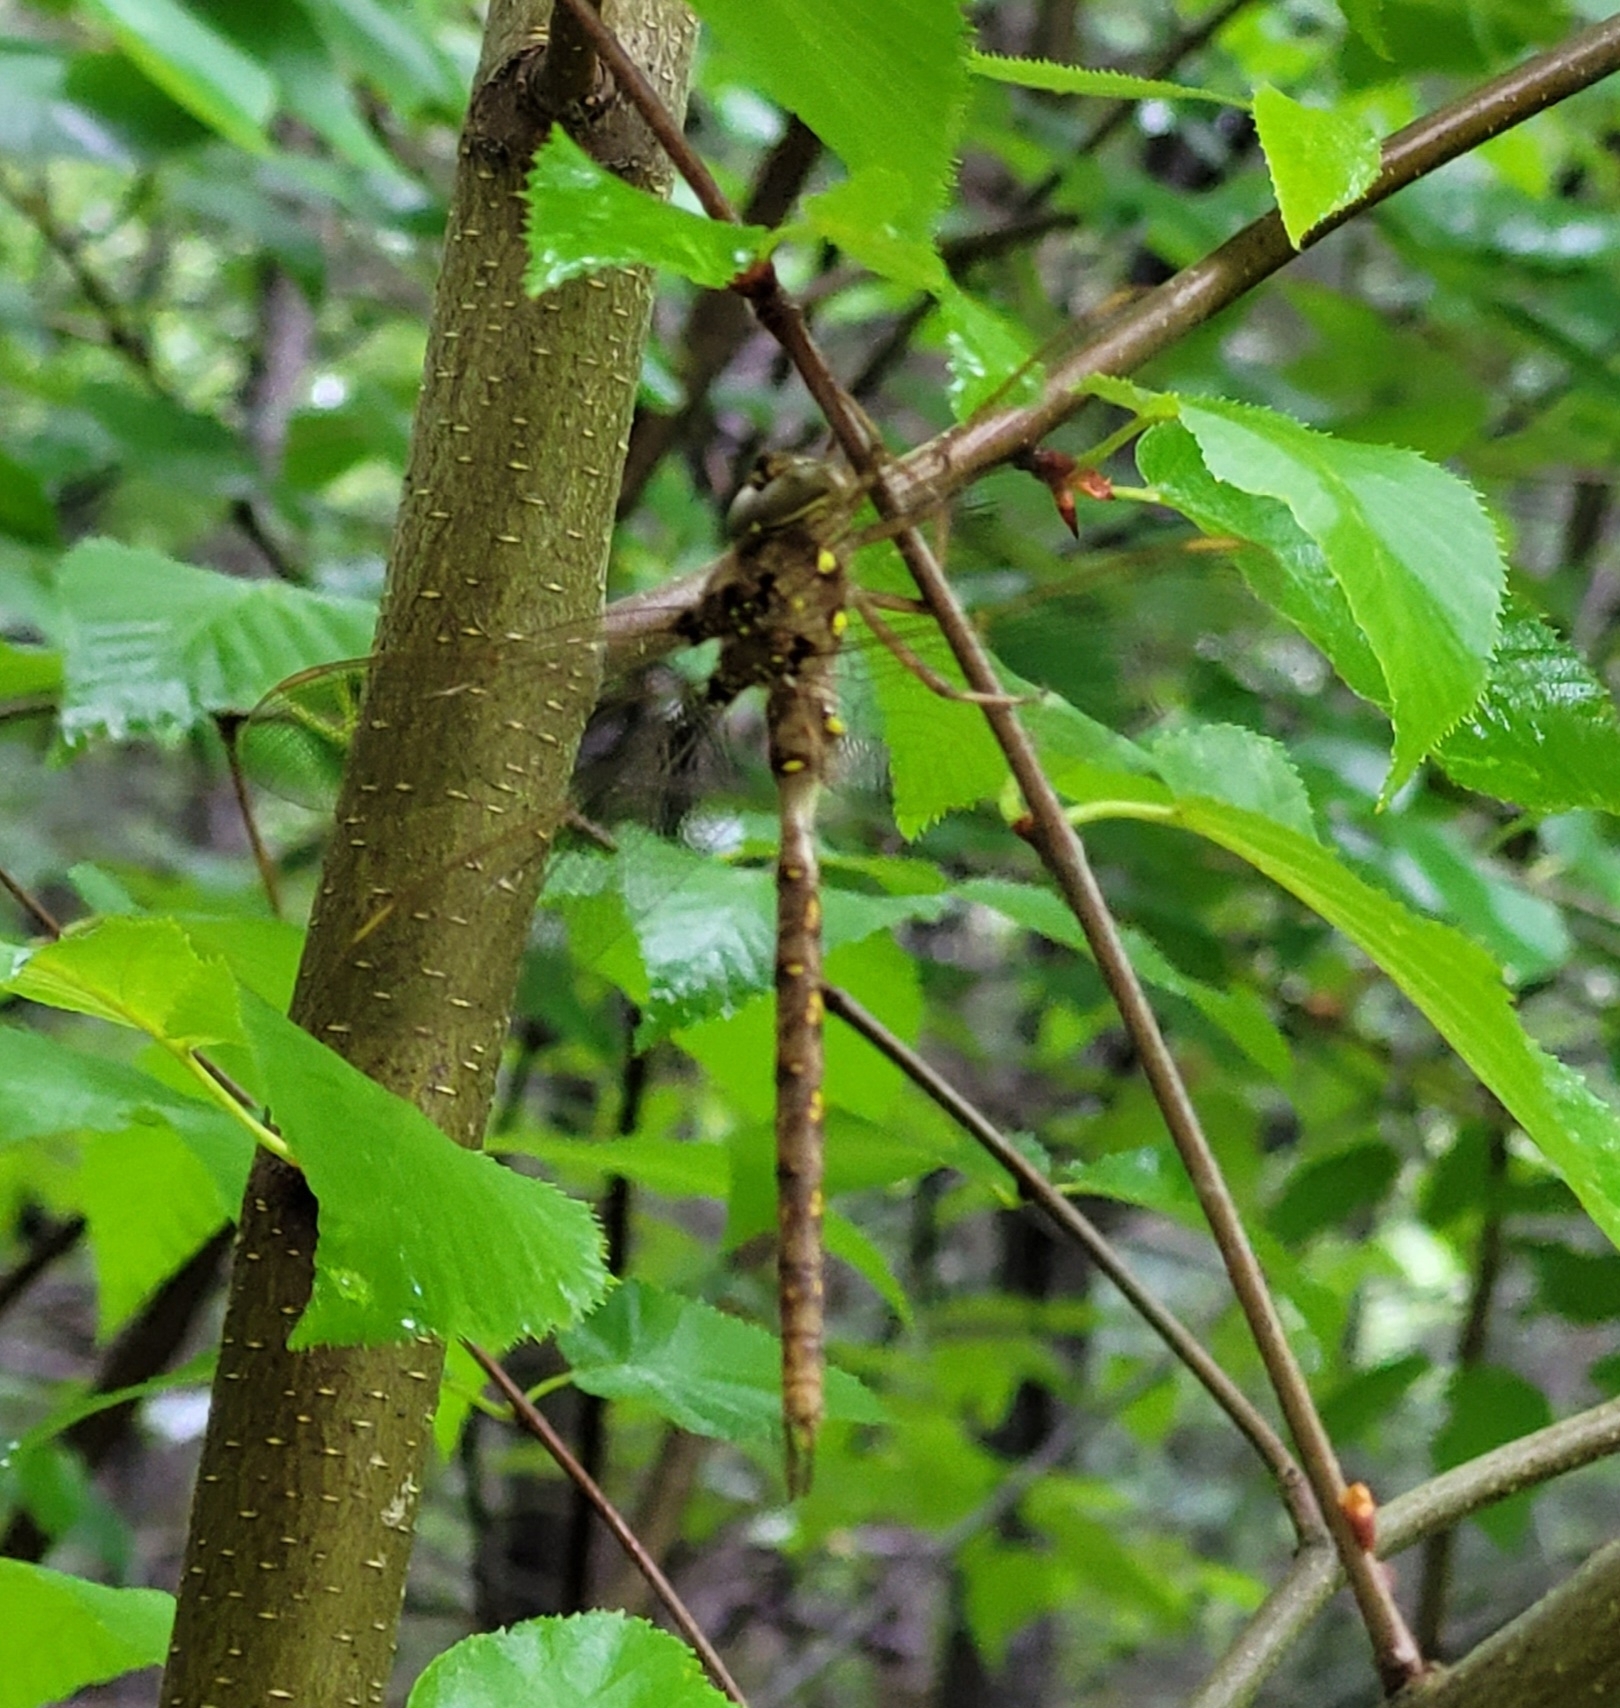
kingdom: Animalia
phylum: Arthropoda
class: Insecta
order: Odonata
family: Aeshnidae
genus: Boyeria
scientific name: Boyeria vinosa
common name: Fawn darner
